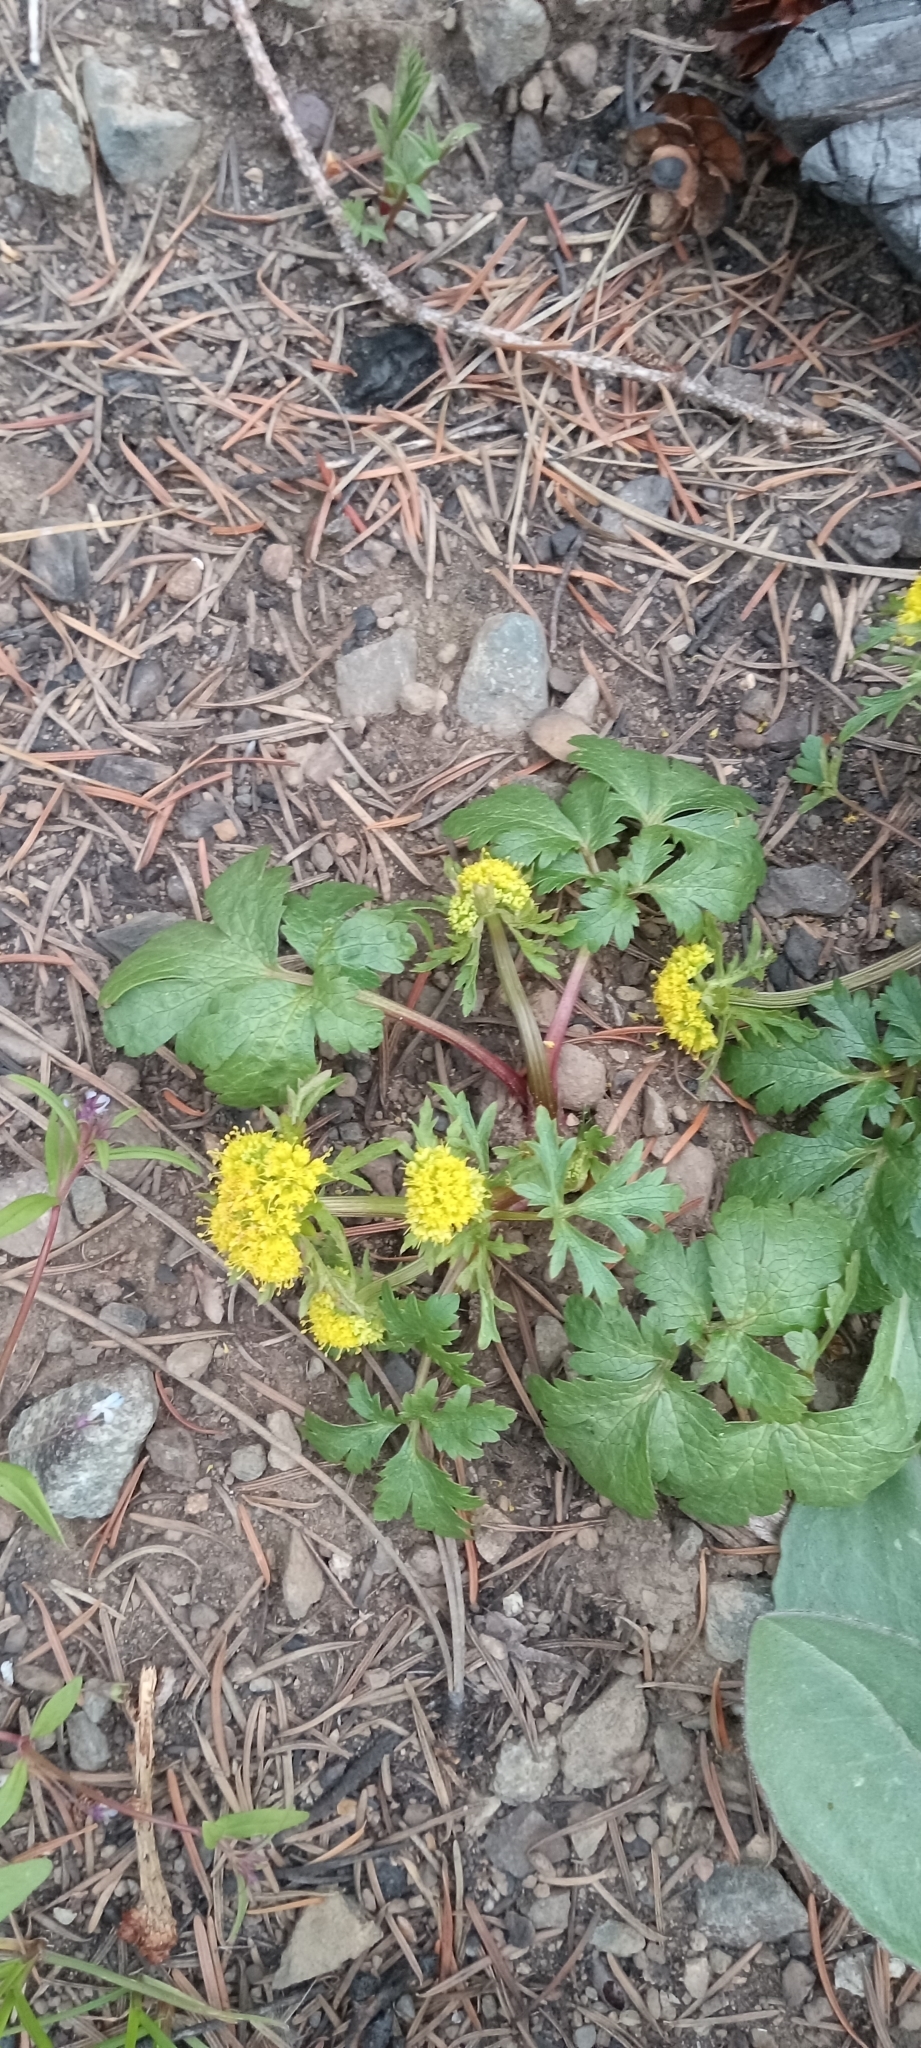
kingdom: Plantae
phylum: Tracheophyta
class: Magnoliopsida
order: Apiales
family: Apiaceae
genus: Sanicula
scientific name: Sanicula graveolens
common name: Sierra sanicle
